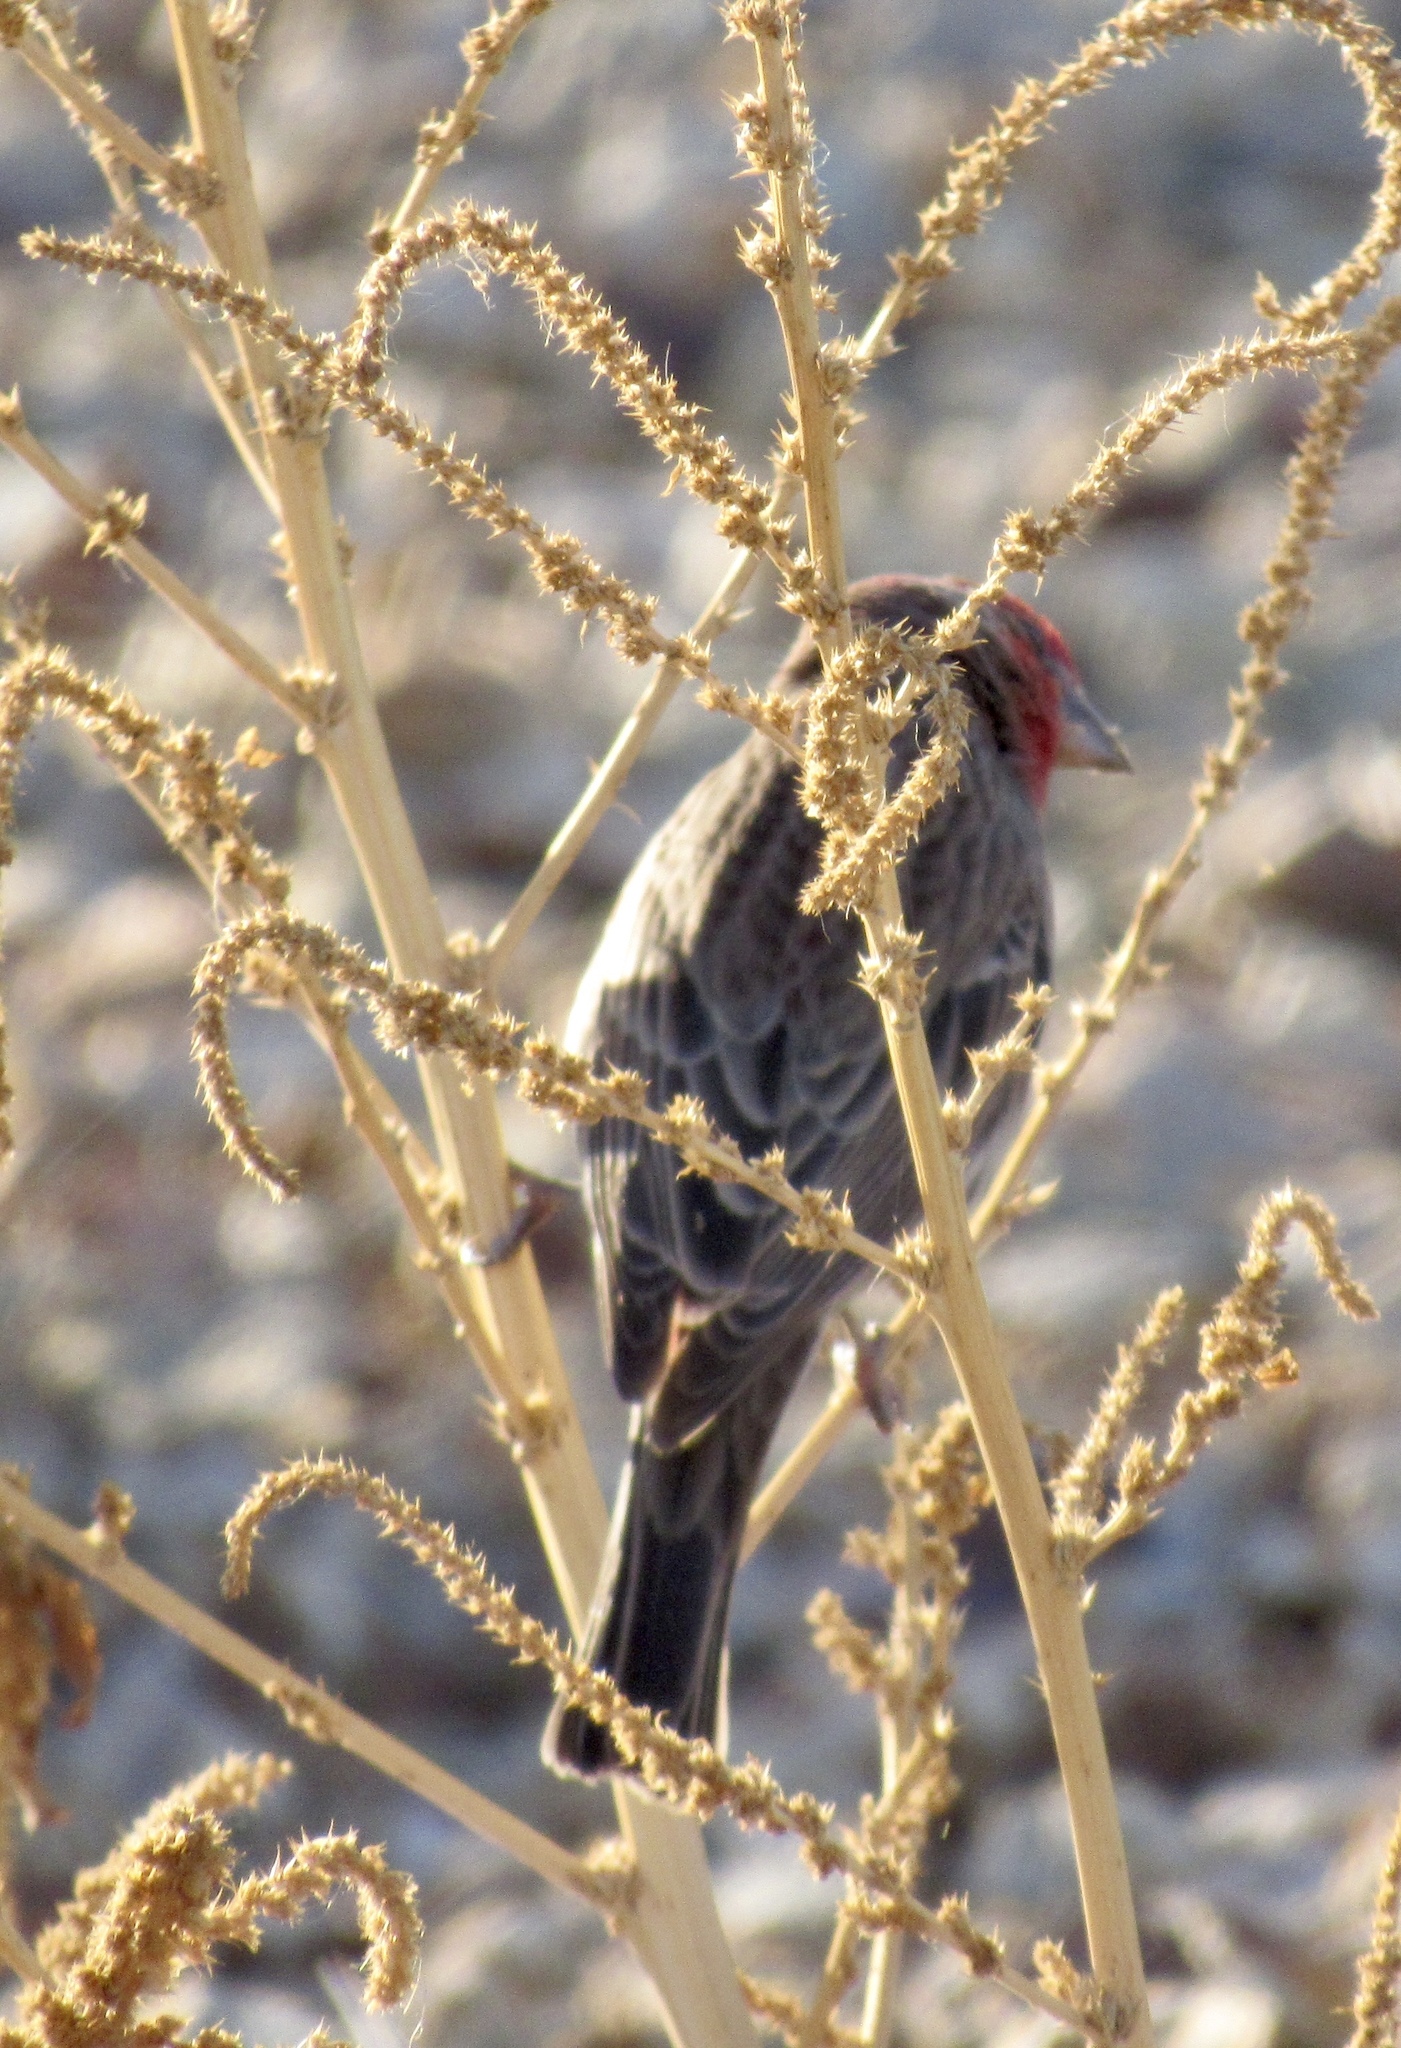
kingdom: Animalia
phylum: Chordata
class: Aves
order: Passeriformes
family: Fringillidae
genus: Haemorhous
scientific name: Haemorhous mexicanus
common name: House finch
